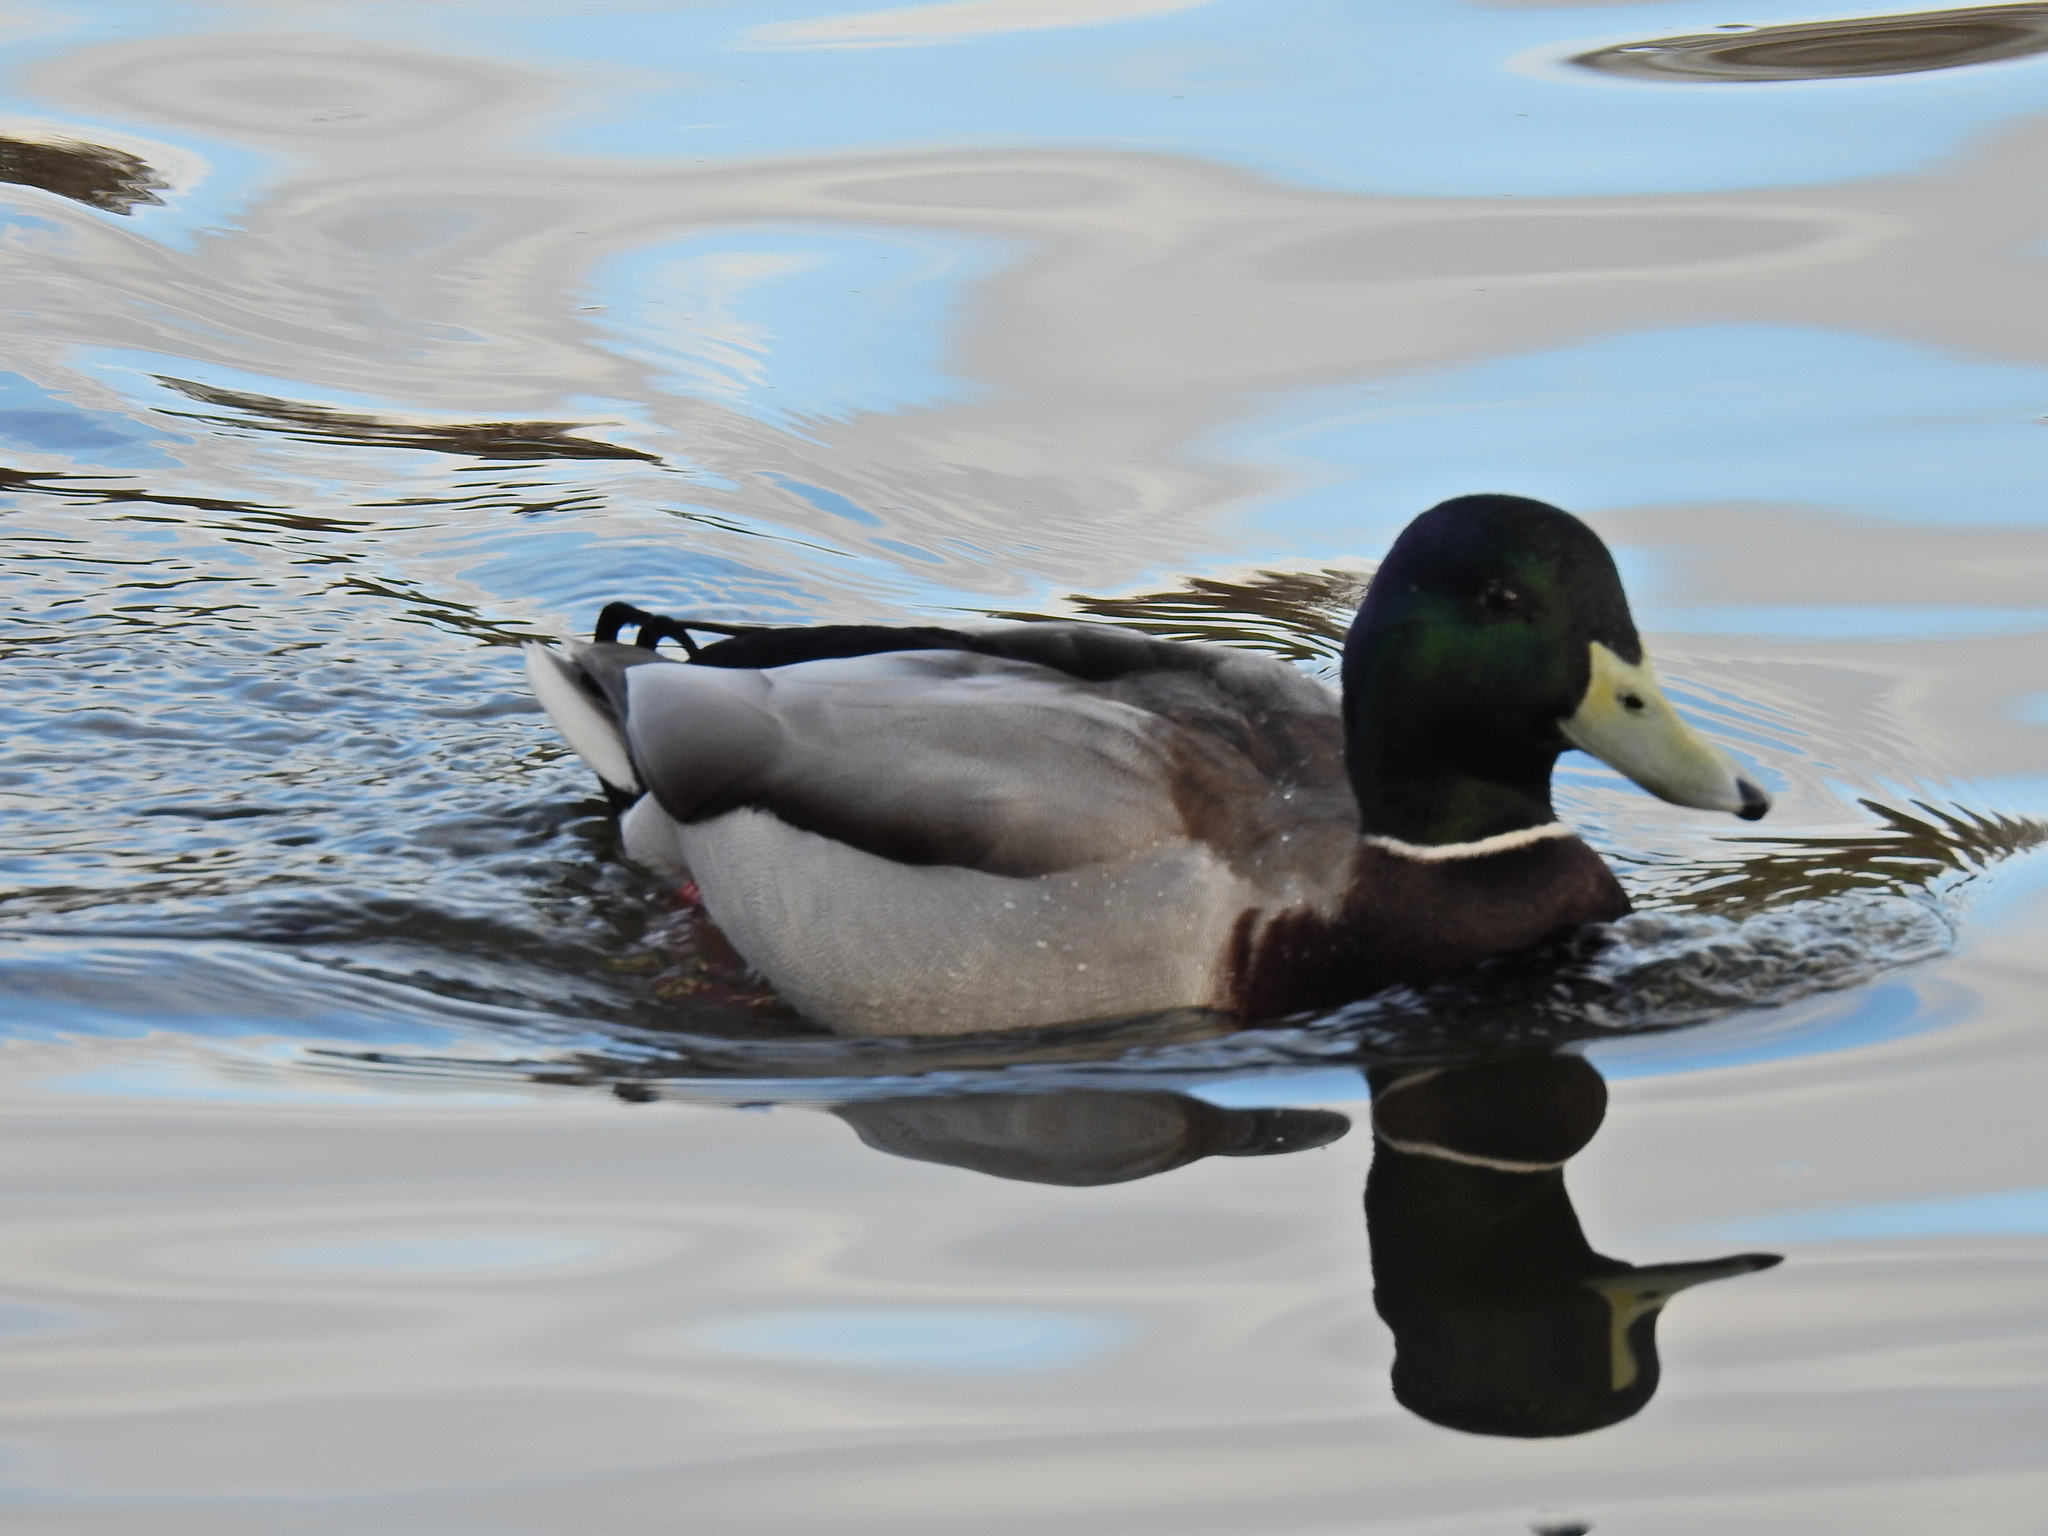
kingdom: Animalia
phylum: Chordata
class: Aves
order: Anseriformes
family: Anatidae
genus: Anas
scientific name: Anas platyrhynchos
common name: Mallard
